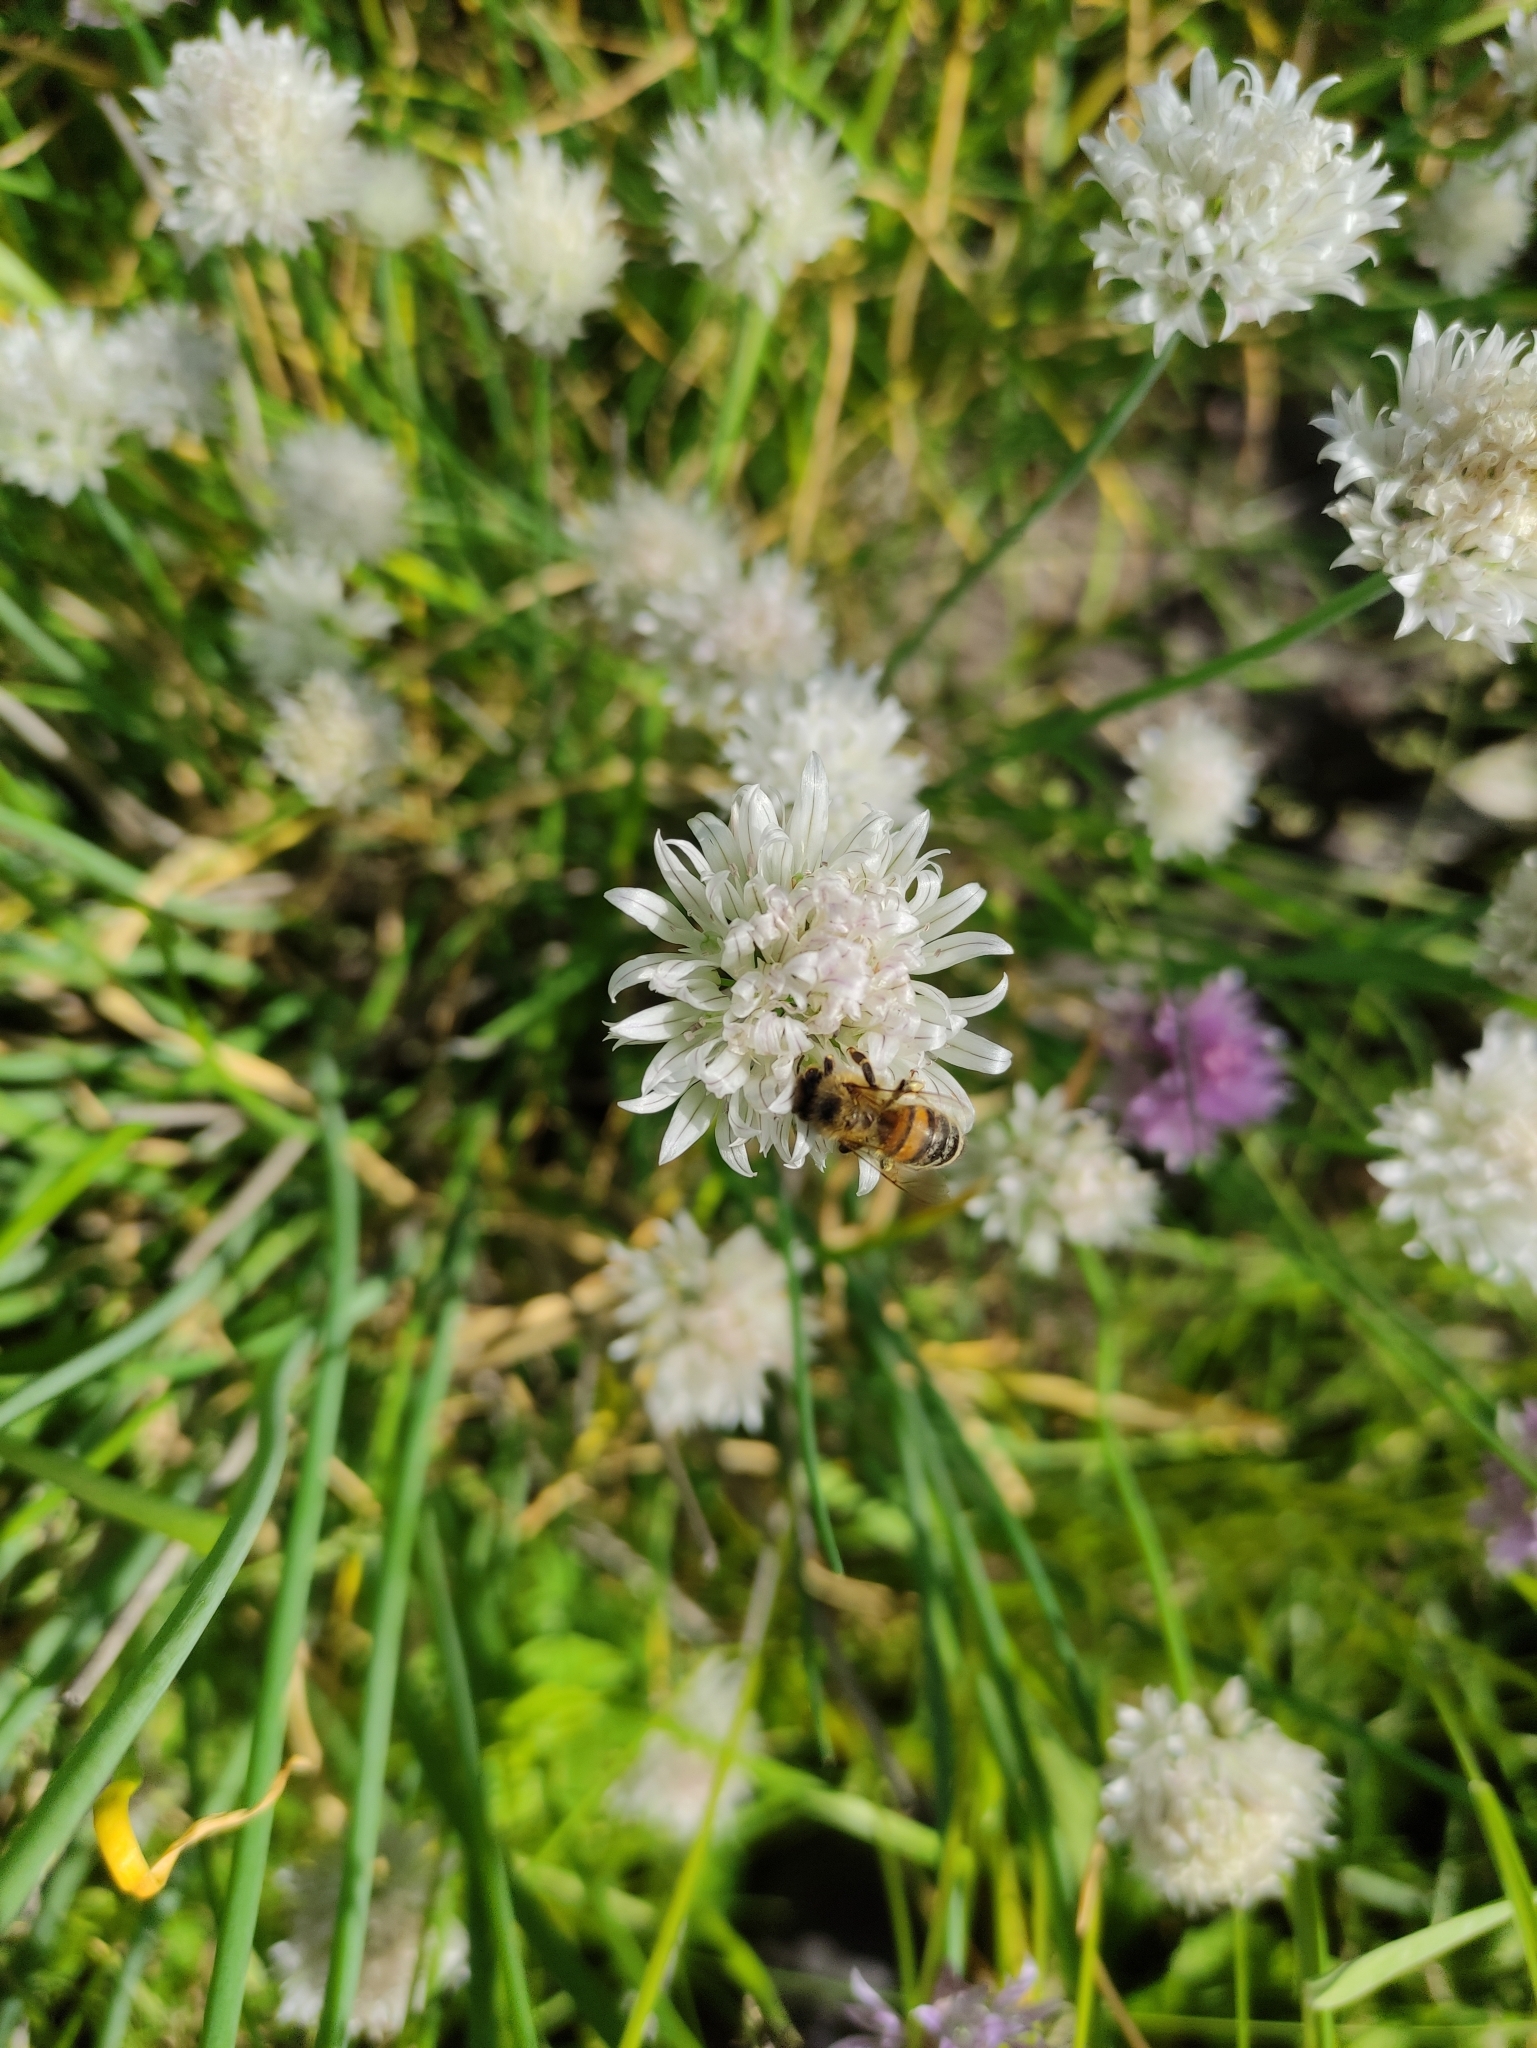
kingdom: Animalia
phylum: Arthropoda
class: Insecta
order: Hymenoptera
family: Apidae
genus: Apis
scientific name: Apis mellifera
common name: Honey bee
